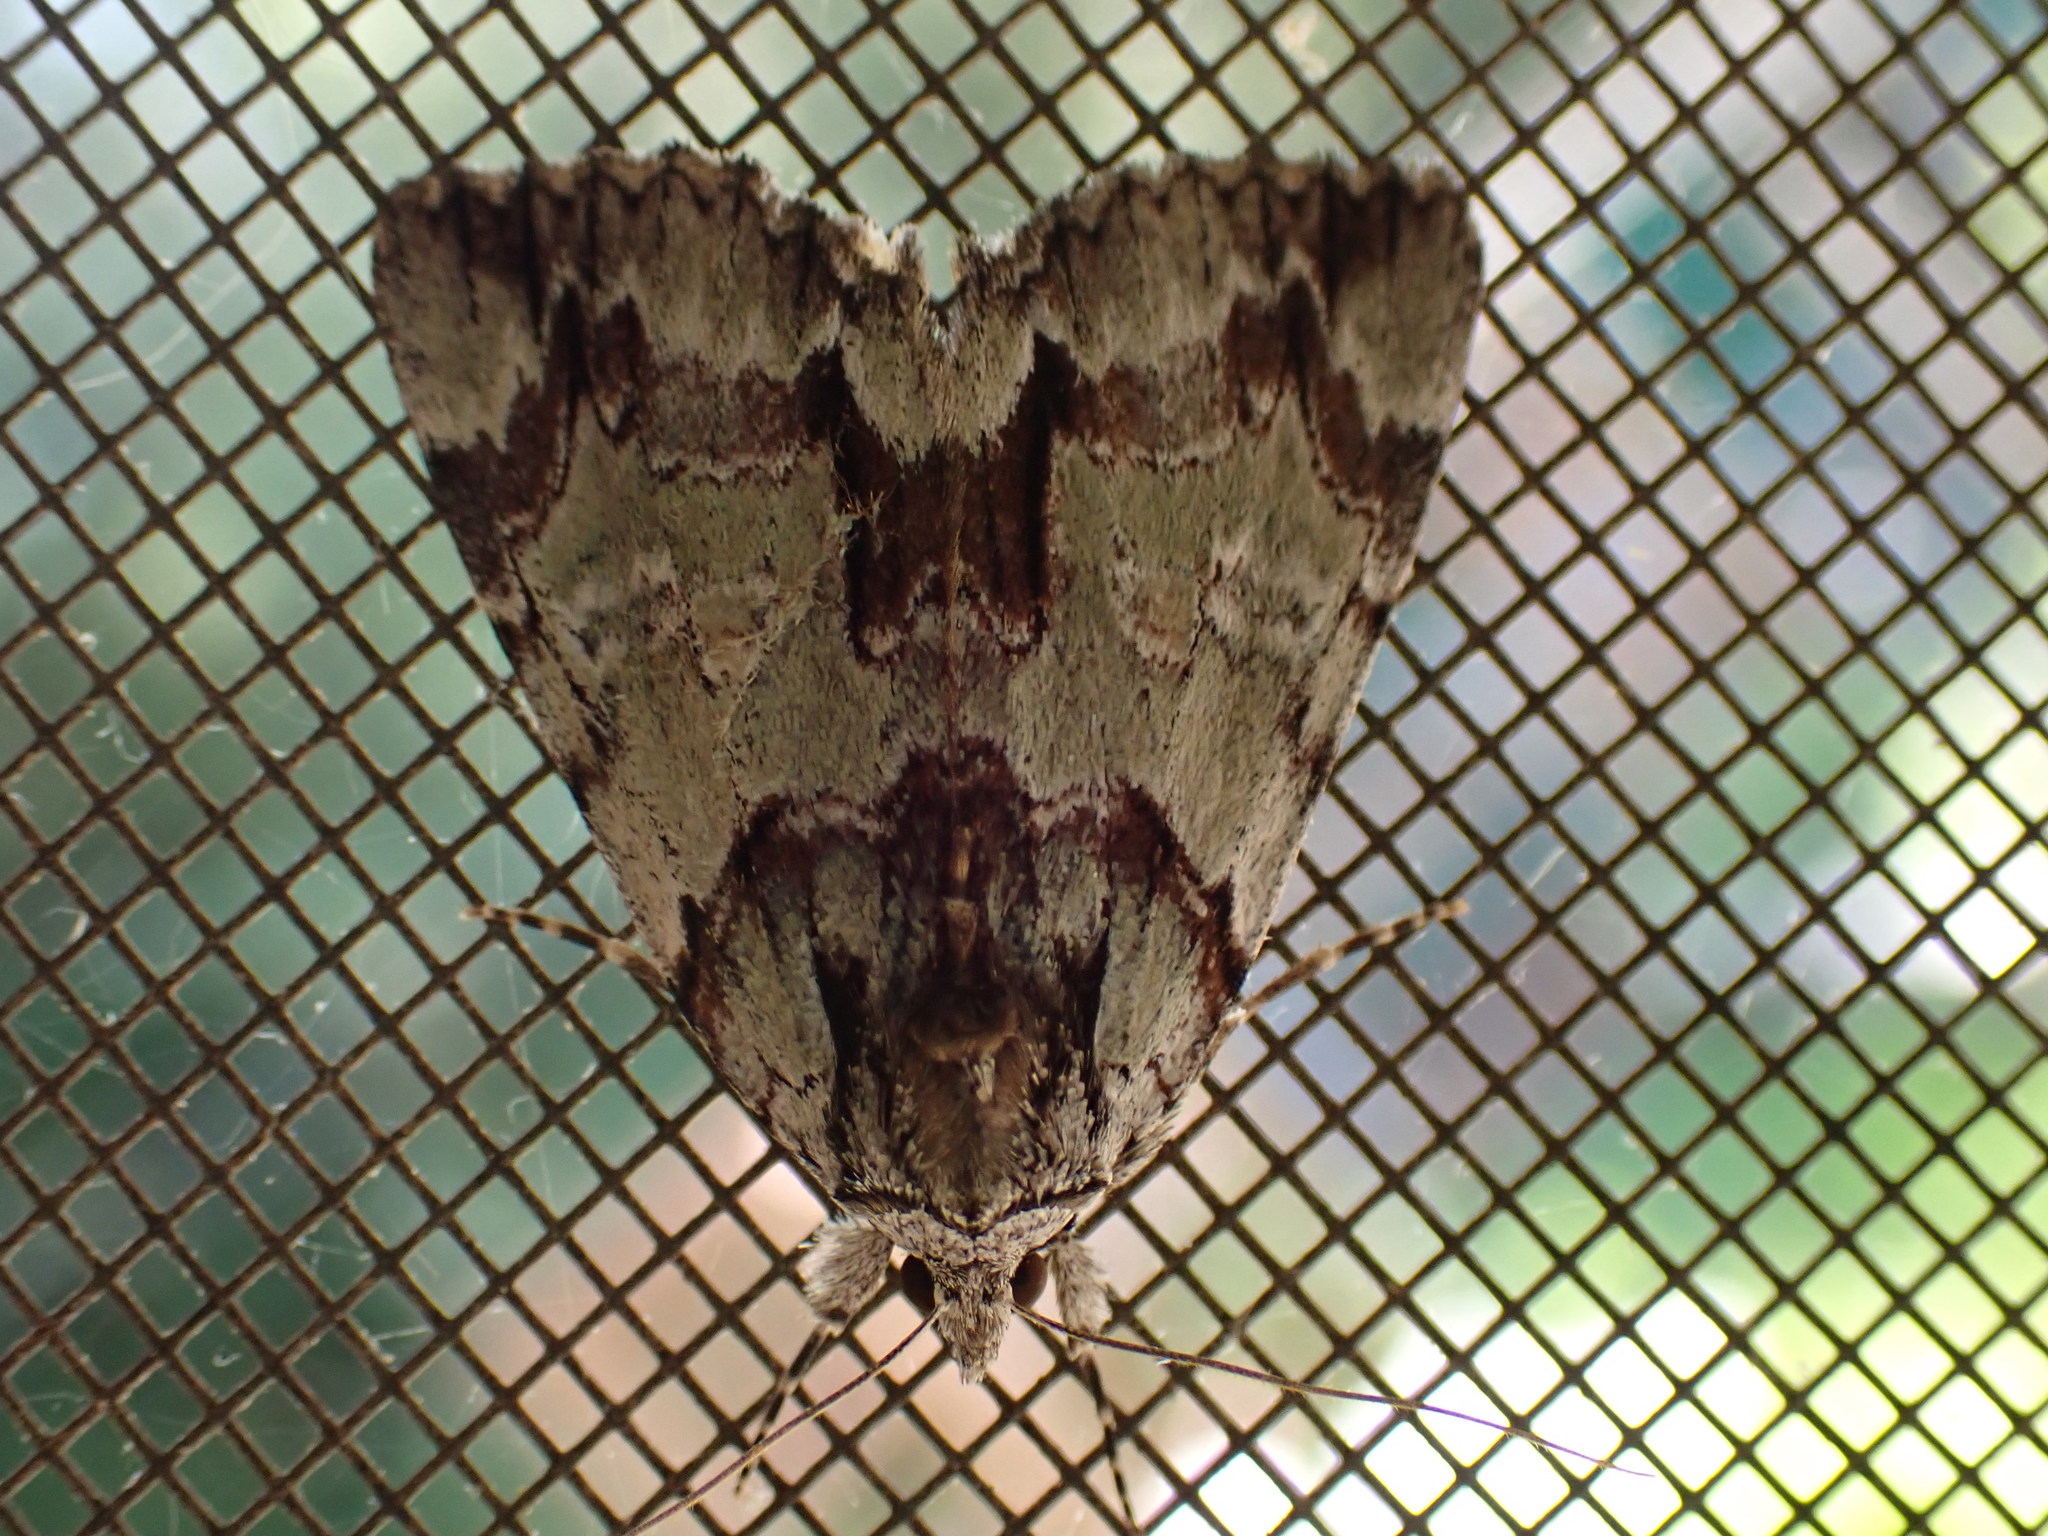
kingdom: Animalia
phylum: Arthropoda
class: Insecta
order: Lepidoptera
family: Erebidae
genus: Catocala
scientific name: Catocala praeclara
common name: Praeclara underwing
